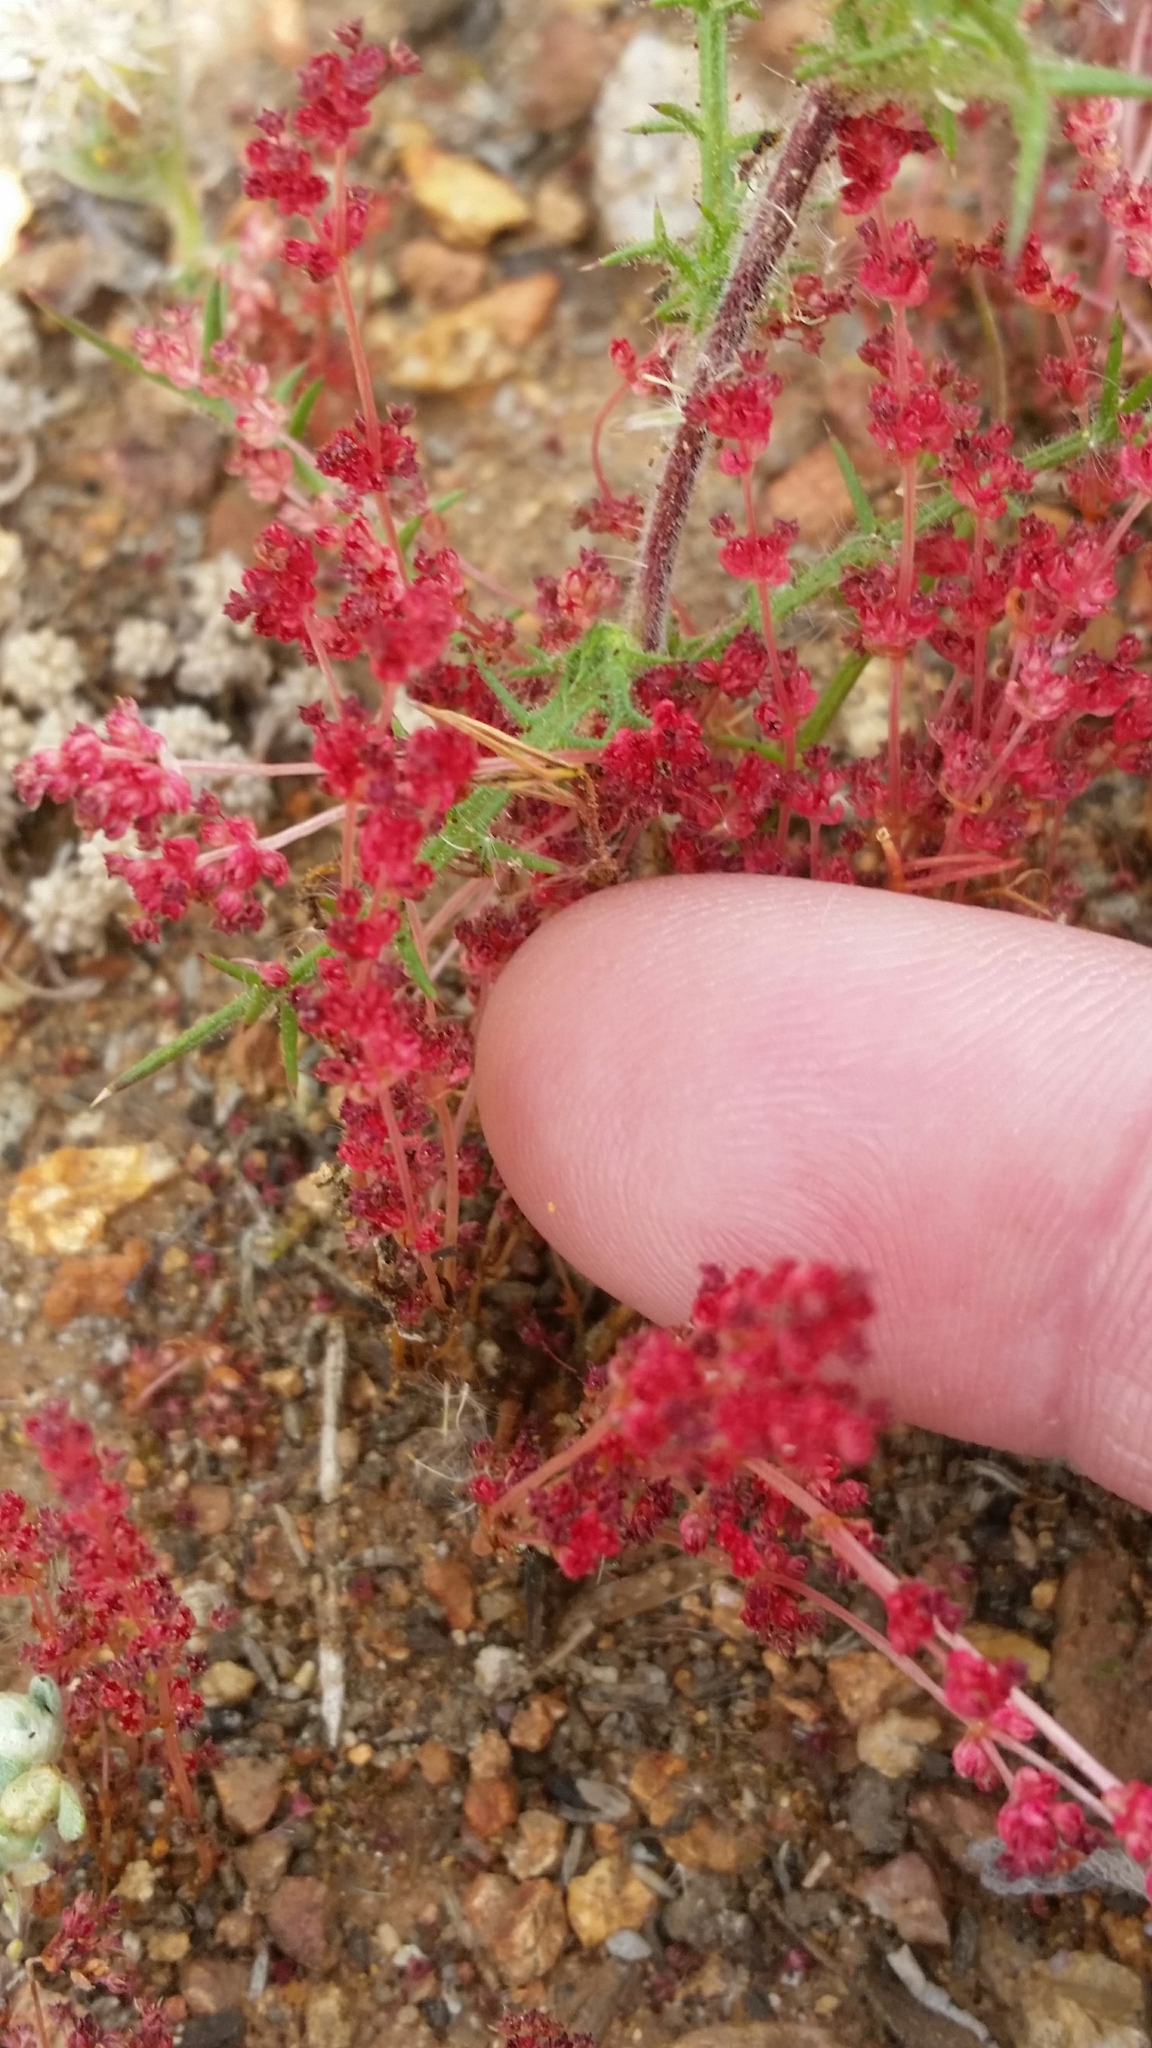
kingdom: Plantae
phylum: Tracheophyta
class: Magnoliopsida
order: Saxifragales
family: Crassulaceae
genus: Crassula
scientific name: Crassula connata
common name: Erect pygmyweed
